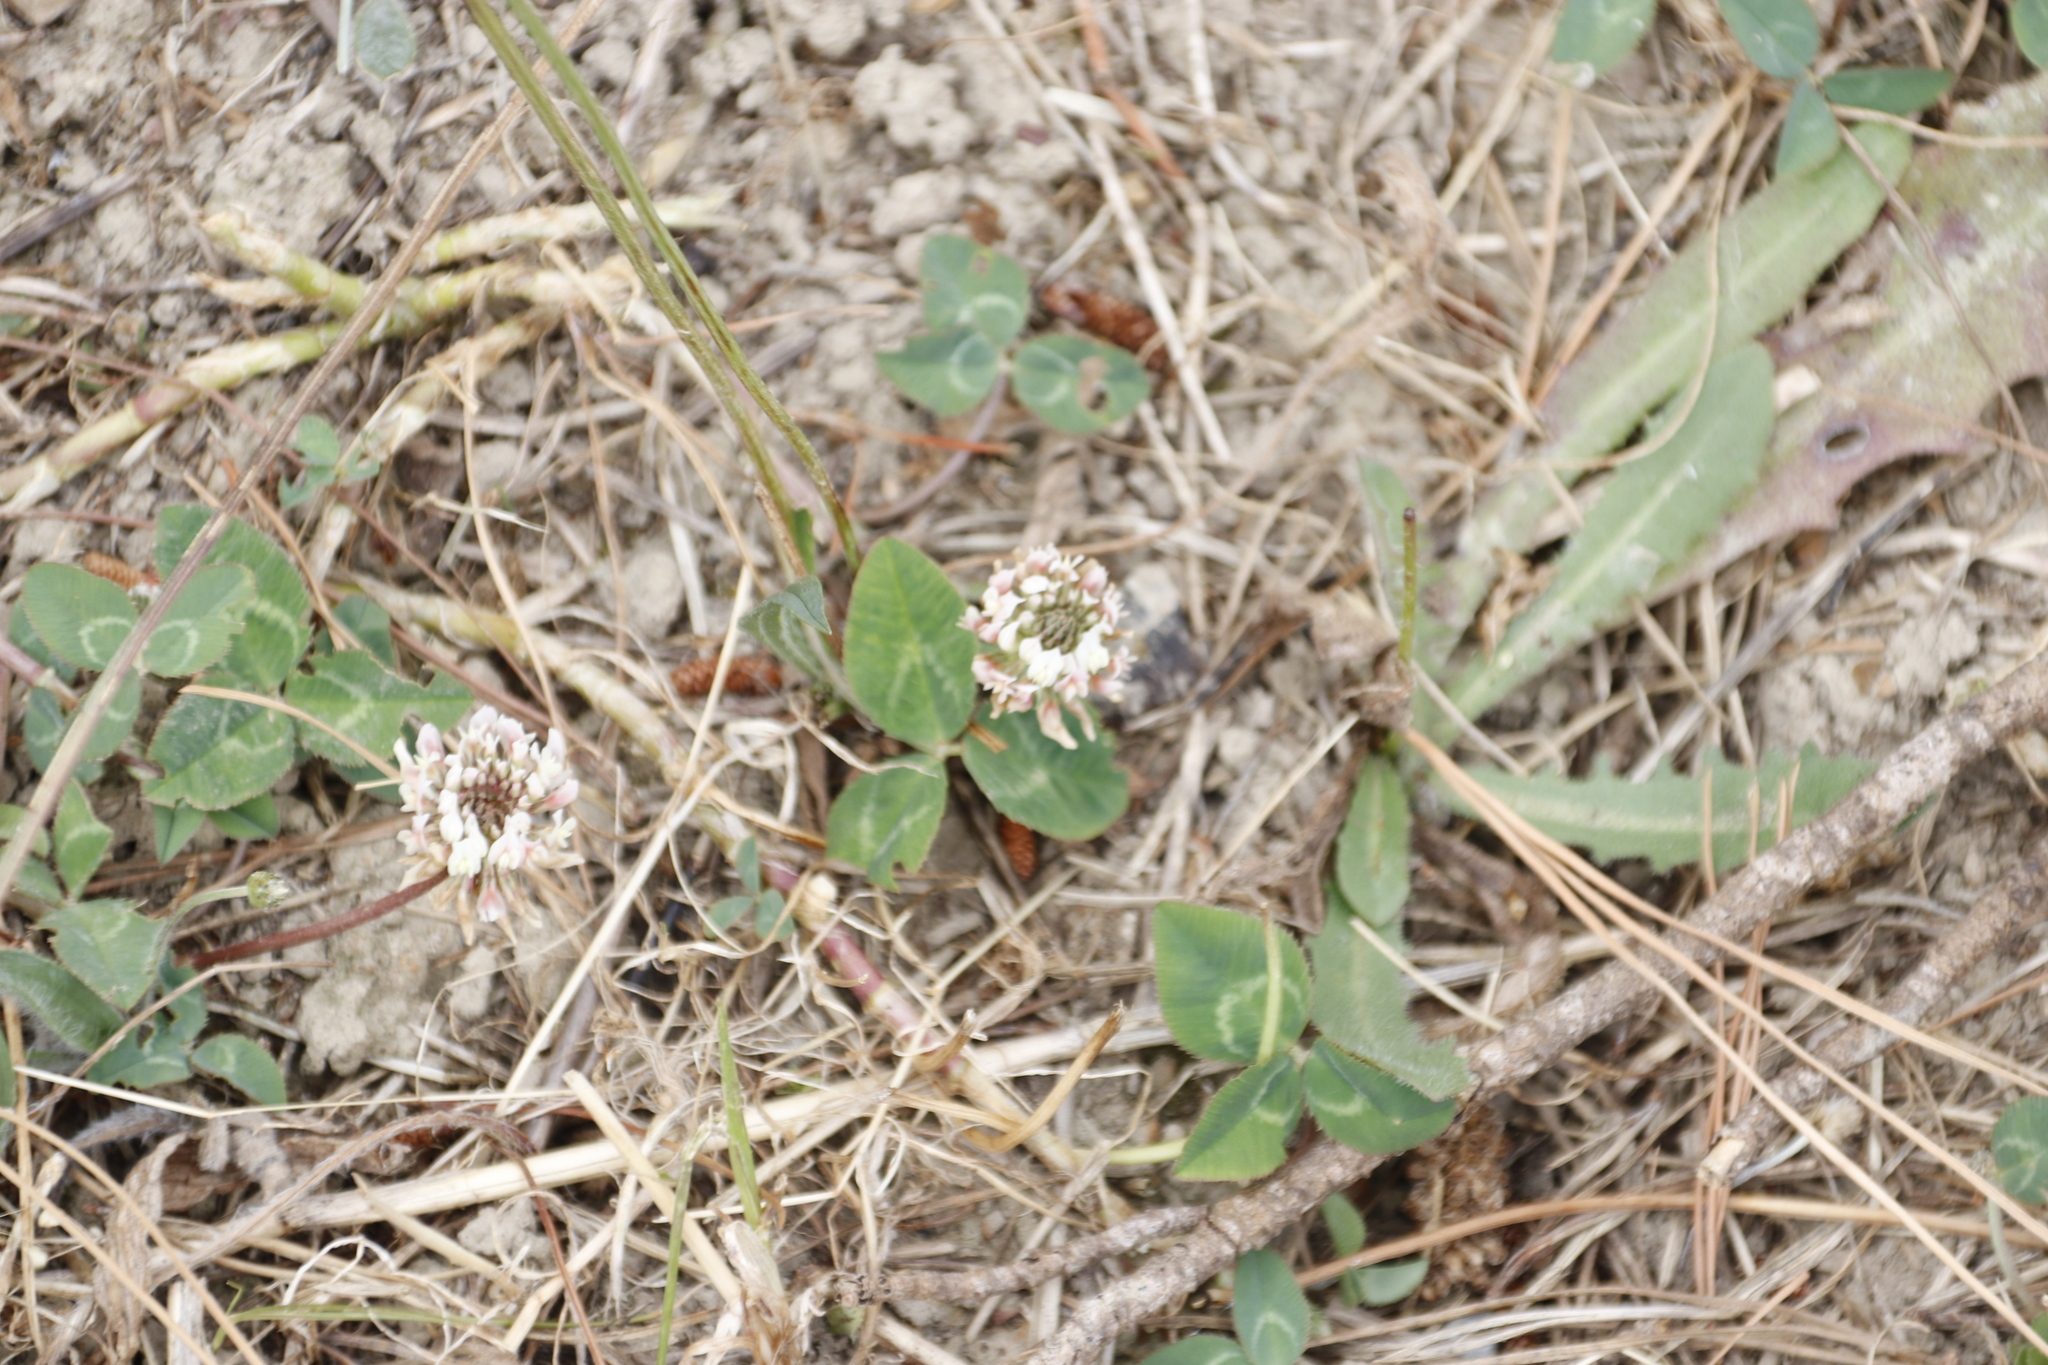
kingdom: Plantae
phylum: Tracheophyta
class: Magnoliopsida
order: Fabales
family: Fabaceae
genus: Trifolium
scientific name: Trifolium repens
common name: White clover
